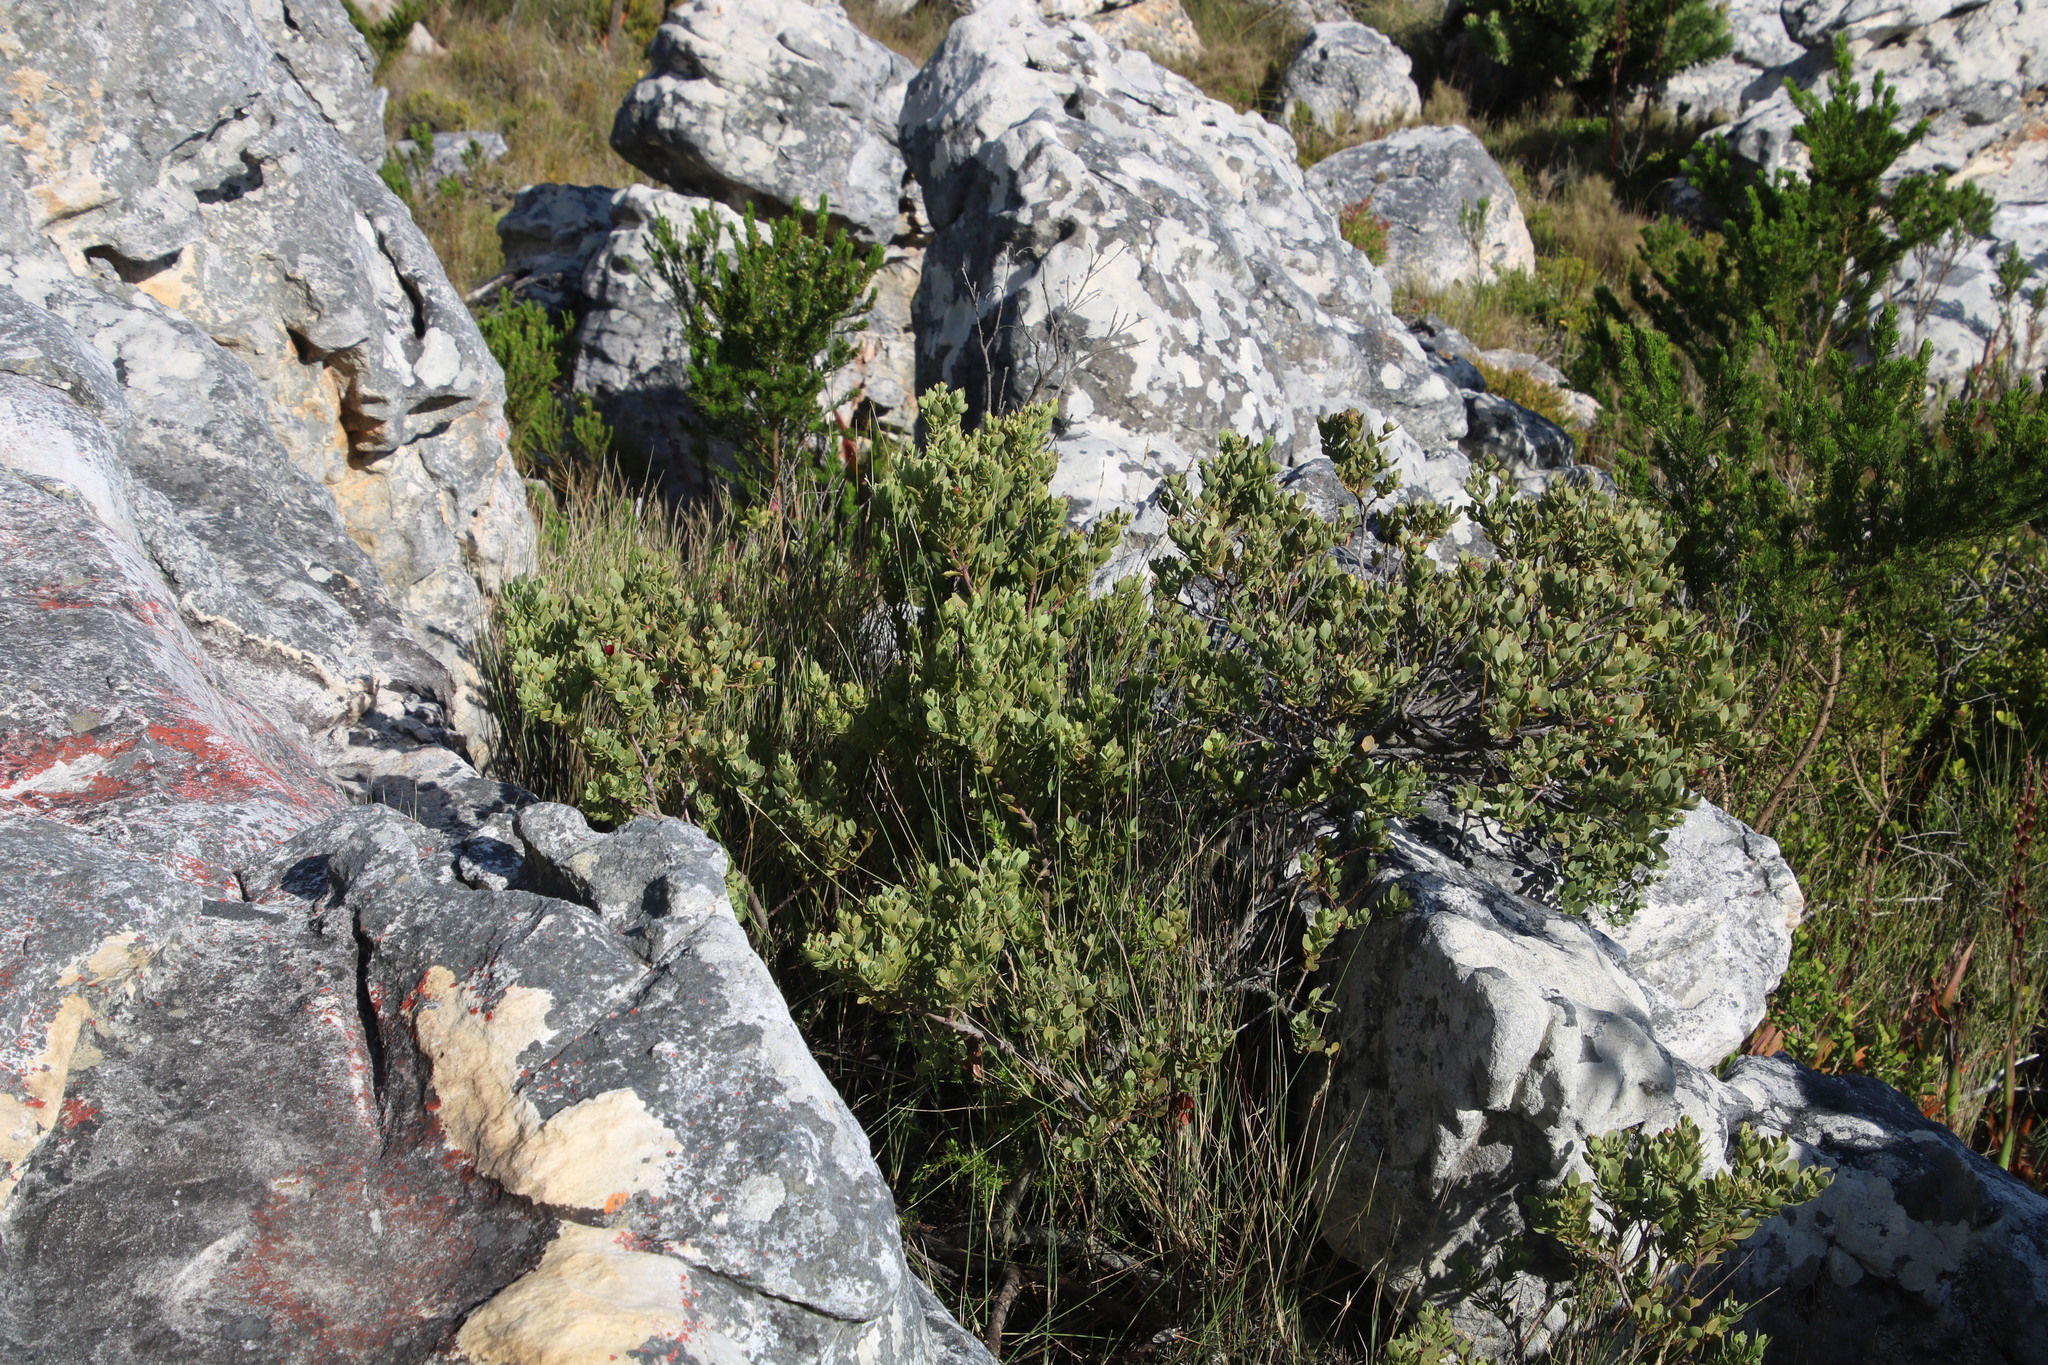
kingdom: Plantae
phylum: Tracheophyta
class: Magnoliopsida
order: Santalales
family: Santalaceae
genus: Osyris
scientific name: Osyris compressa
